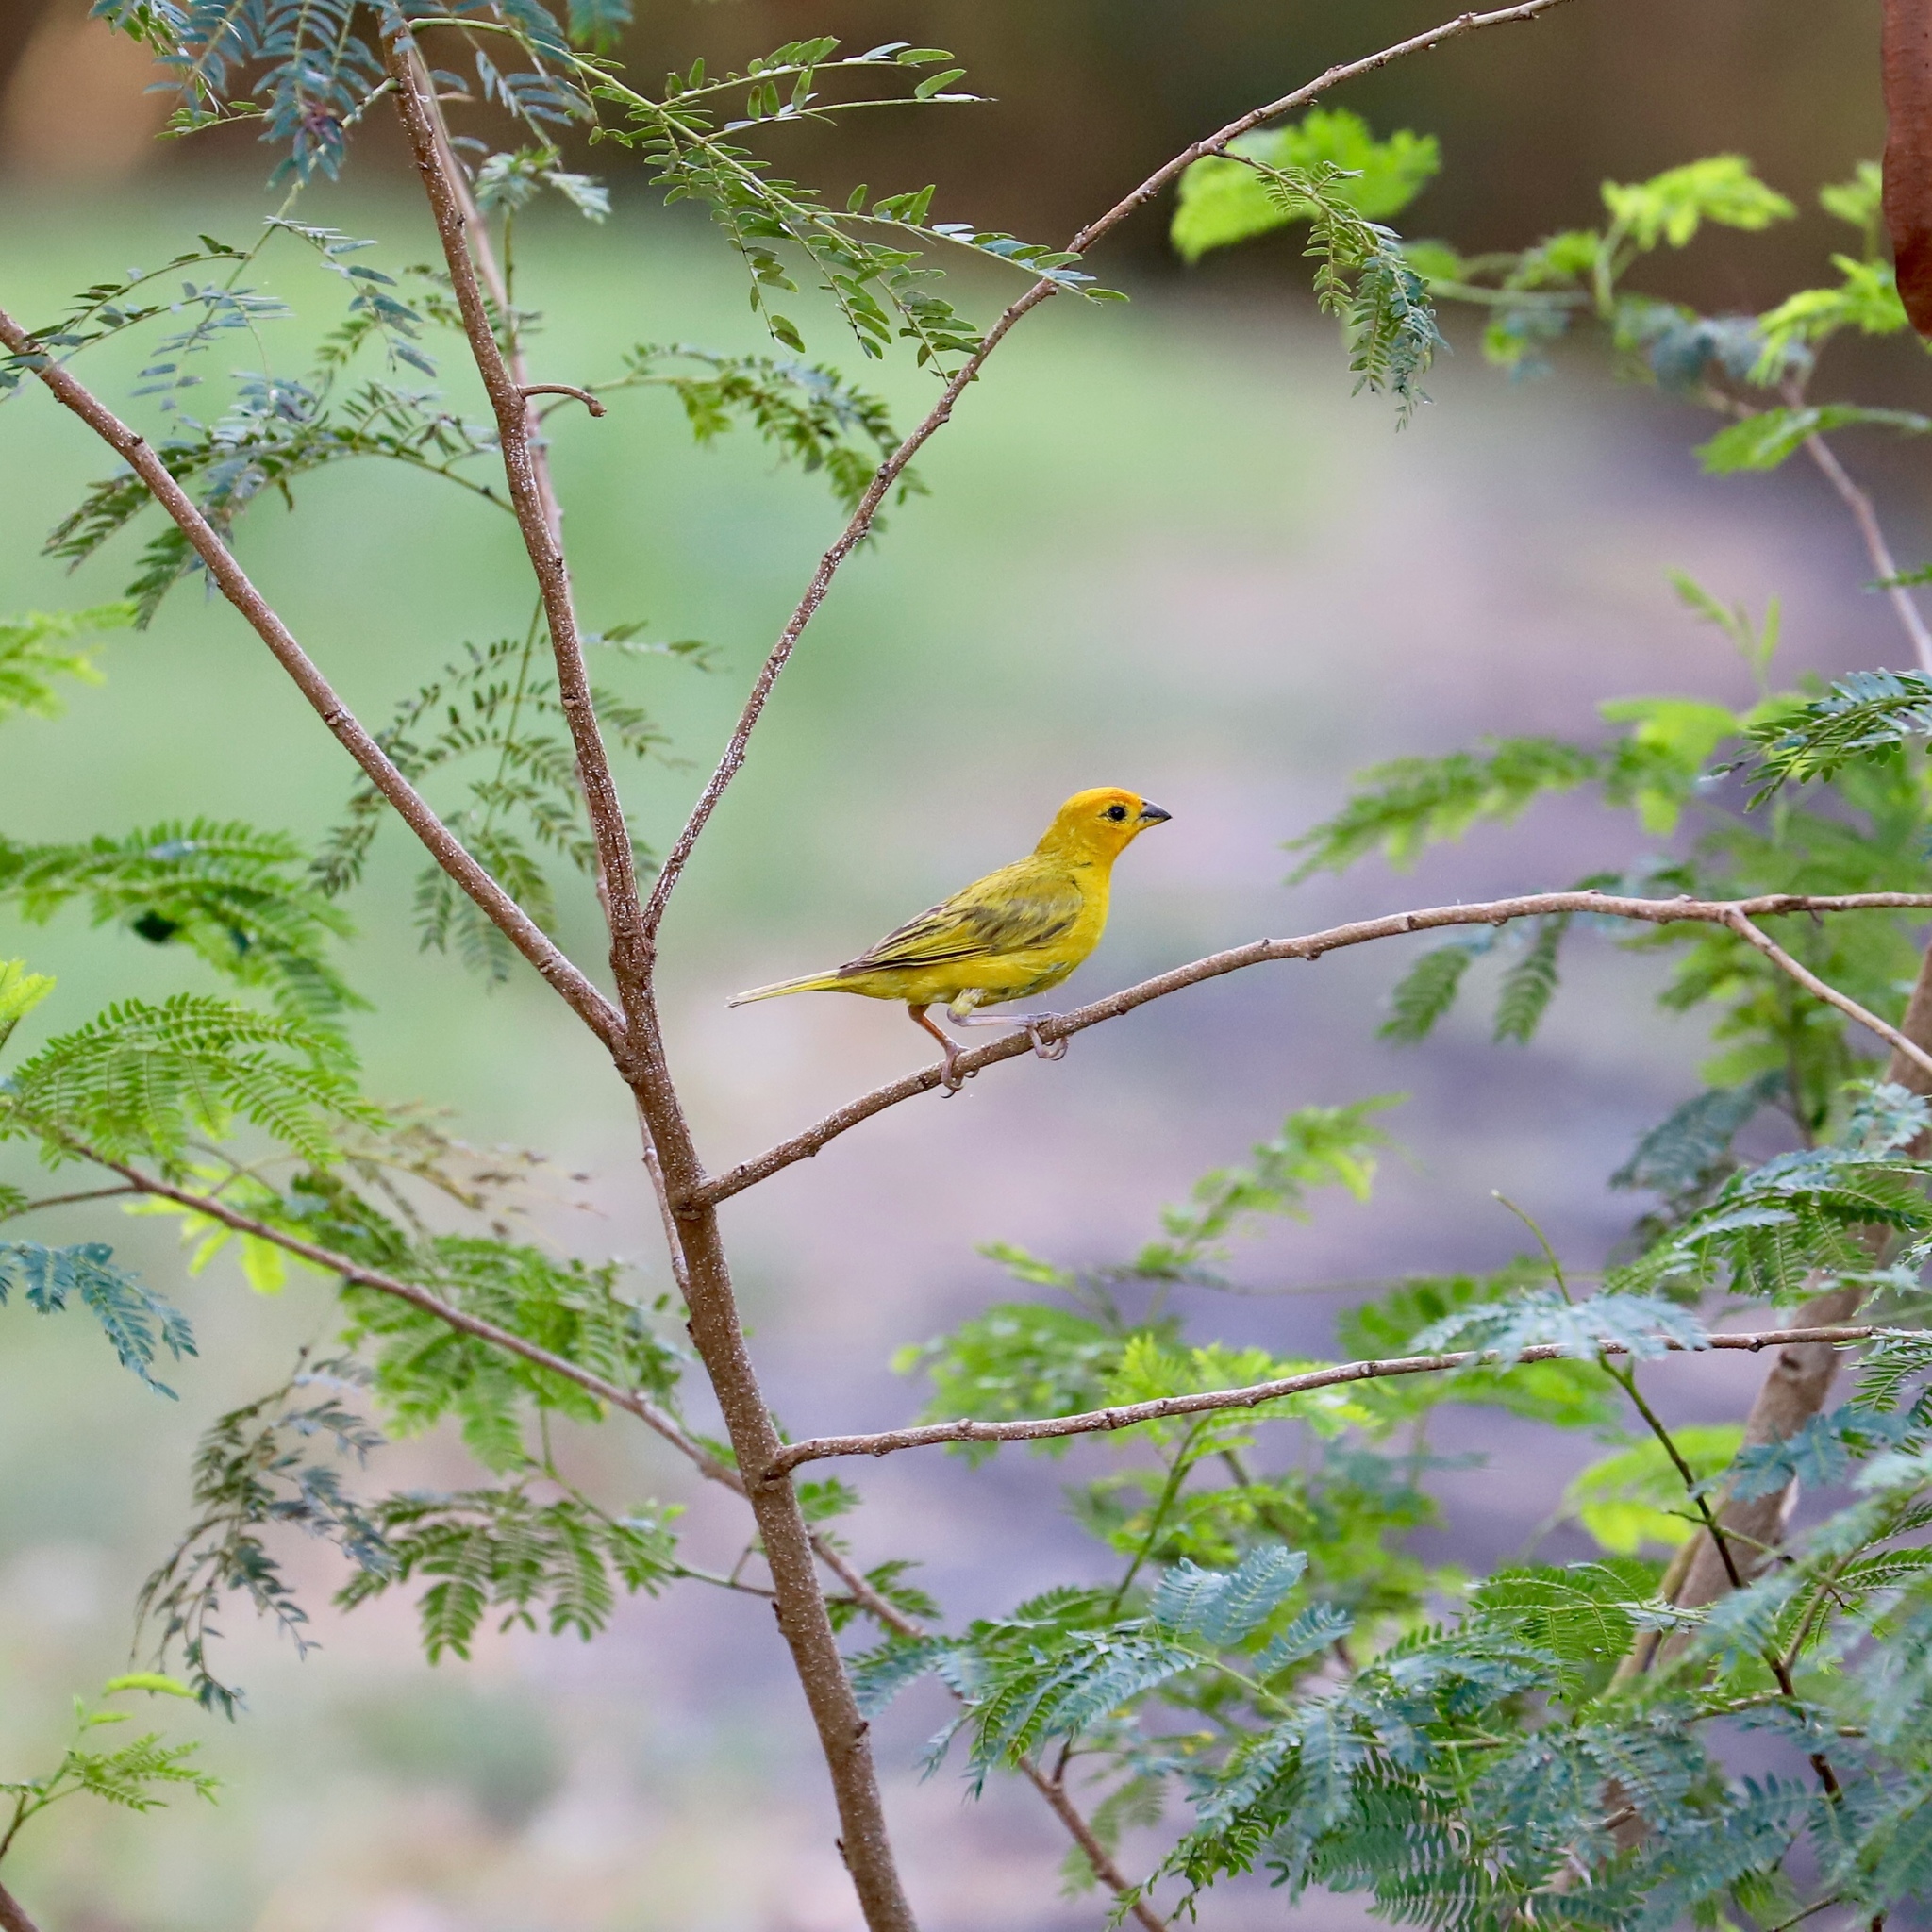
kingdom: Animalia
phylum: Chordata
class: Aves
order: Passeriformes
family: Thraupidae
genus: Sicalis
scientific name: Sicalis flaveola
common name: Saffron finch
